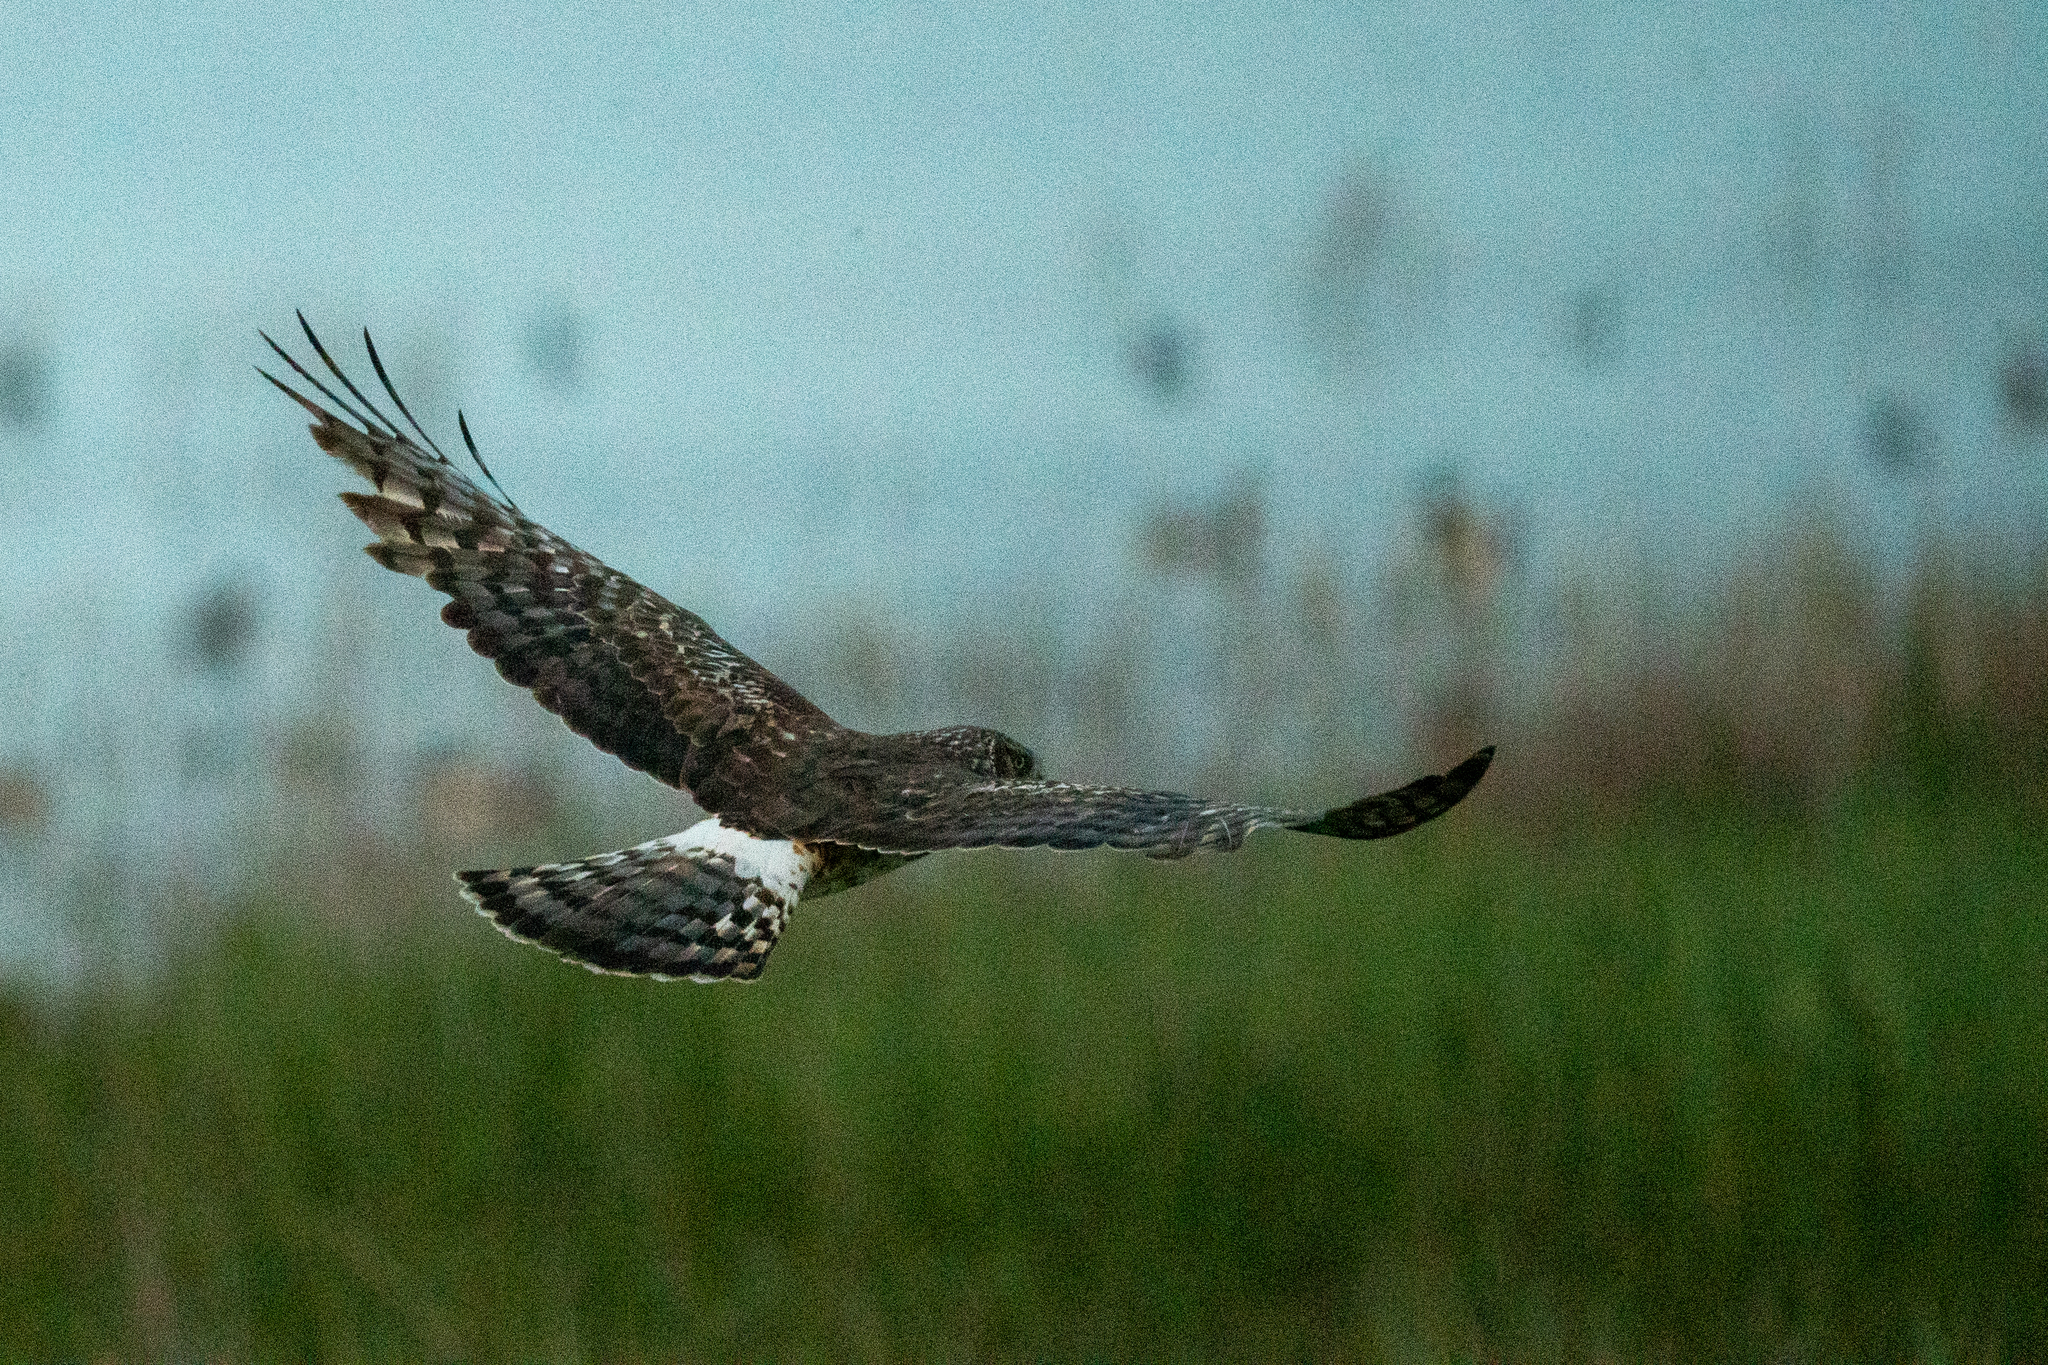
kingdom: Animalia
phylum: Chordata
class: Aves
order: Accipitriformes
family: Accipitridae
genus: Circus
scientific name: Circus cyaneus
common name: Hen harrier
